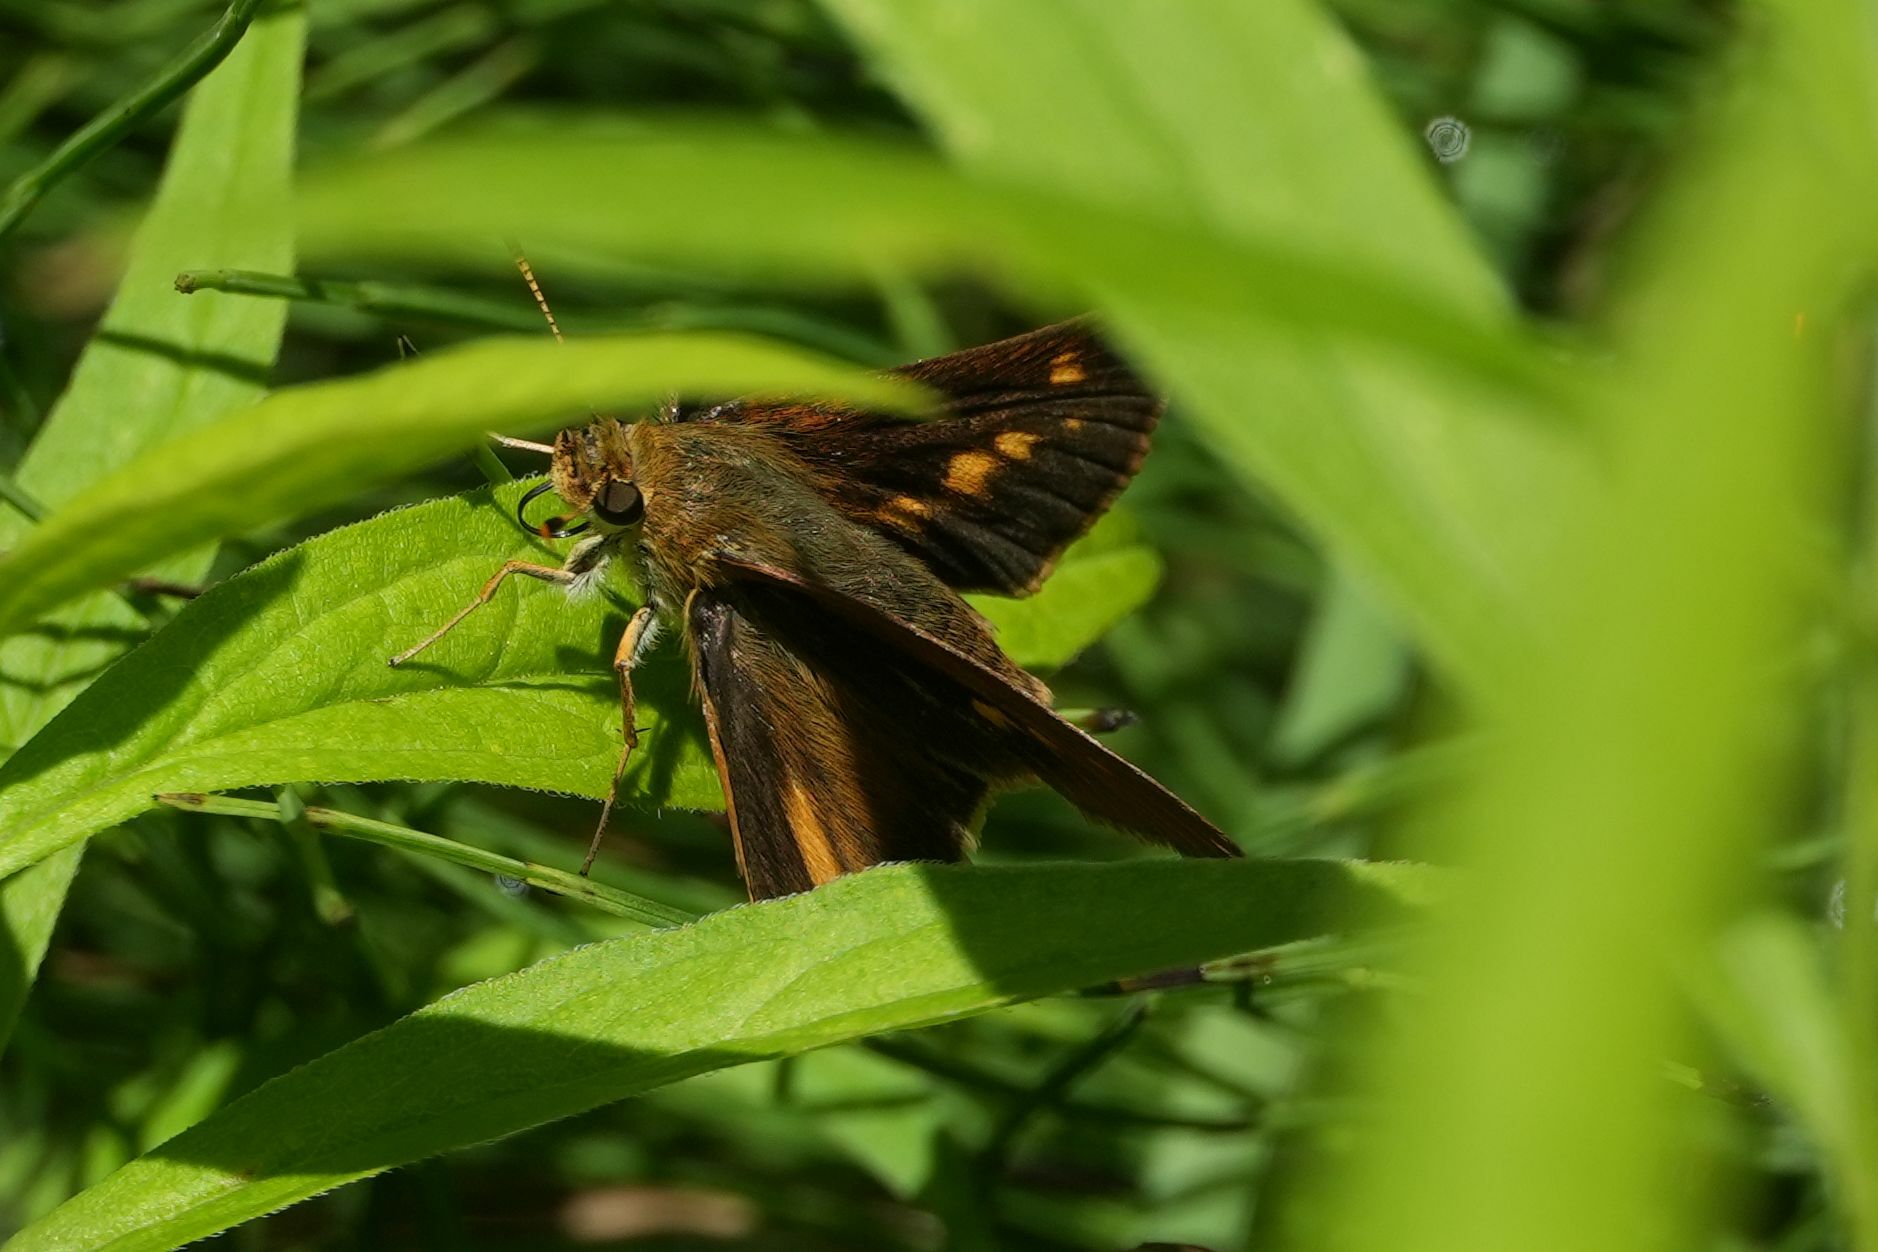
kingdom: Animalia
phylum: Arthropoda
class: Insecta
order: Lepidoptera
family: Hesperiidae
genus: Euphyes
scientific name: Euphyes dion
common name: Dion skipper
